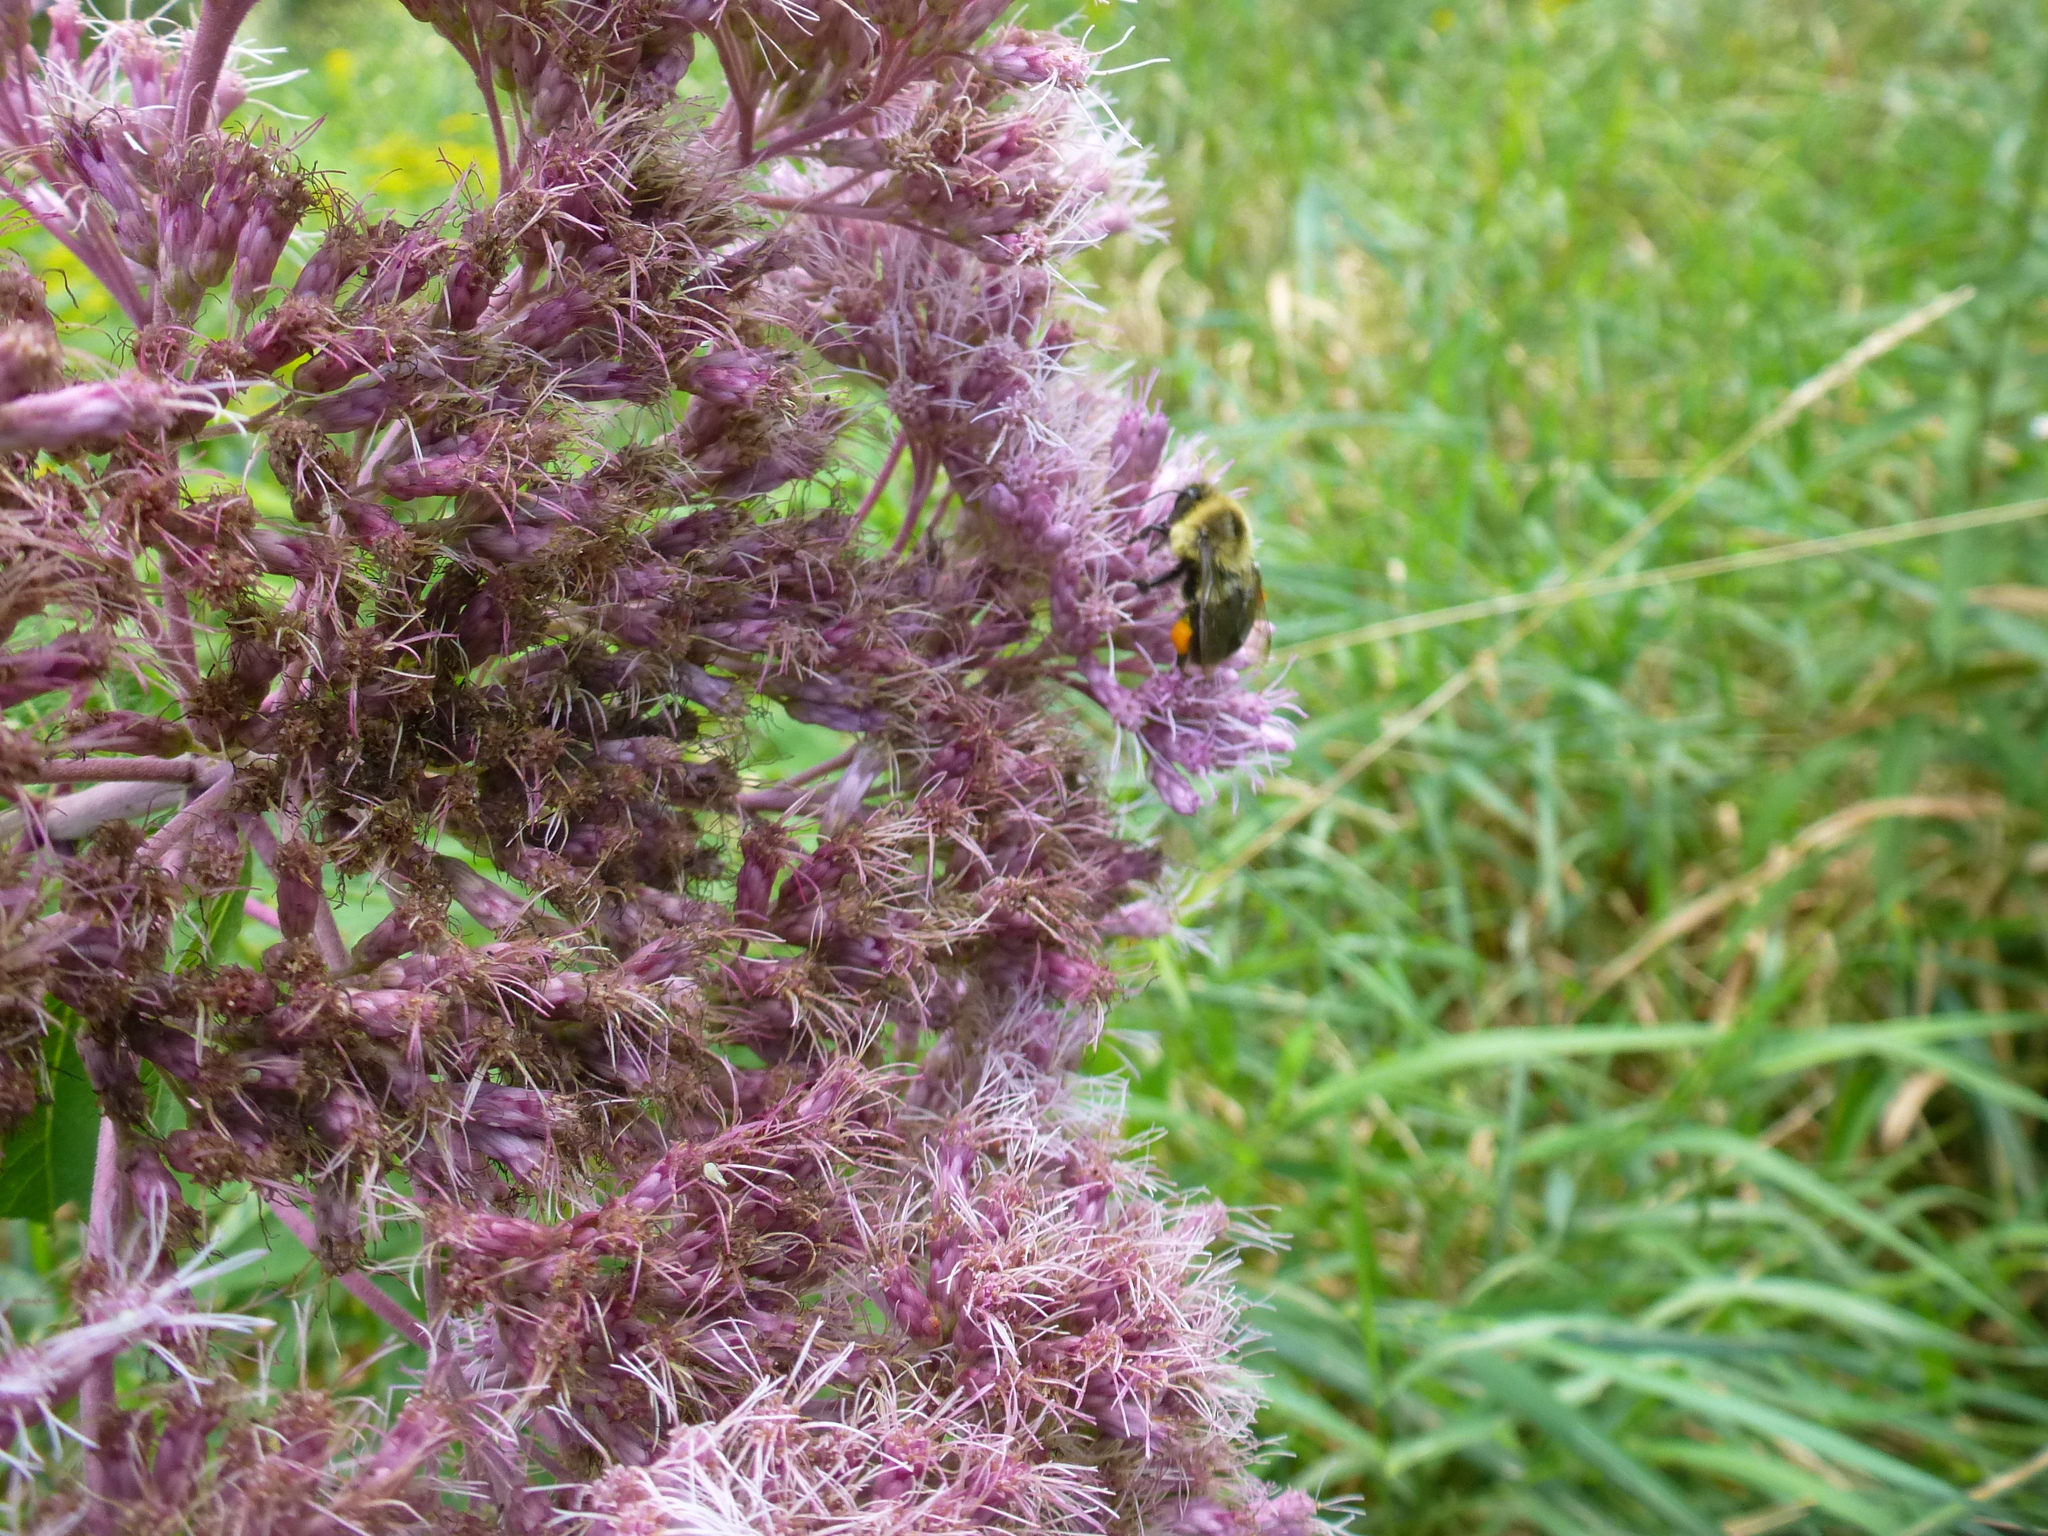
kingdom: Animalia
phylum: Arthropoda
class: Insecta
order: Hymenoptera
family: Apidae
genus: Bombus
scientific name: Bombus impatiens
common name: Common eastern bumble bee
